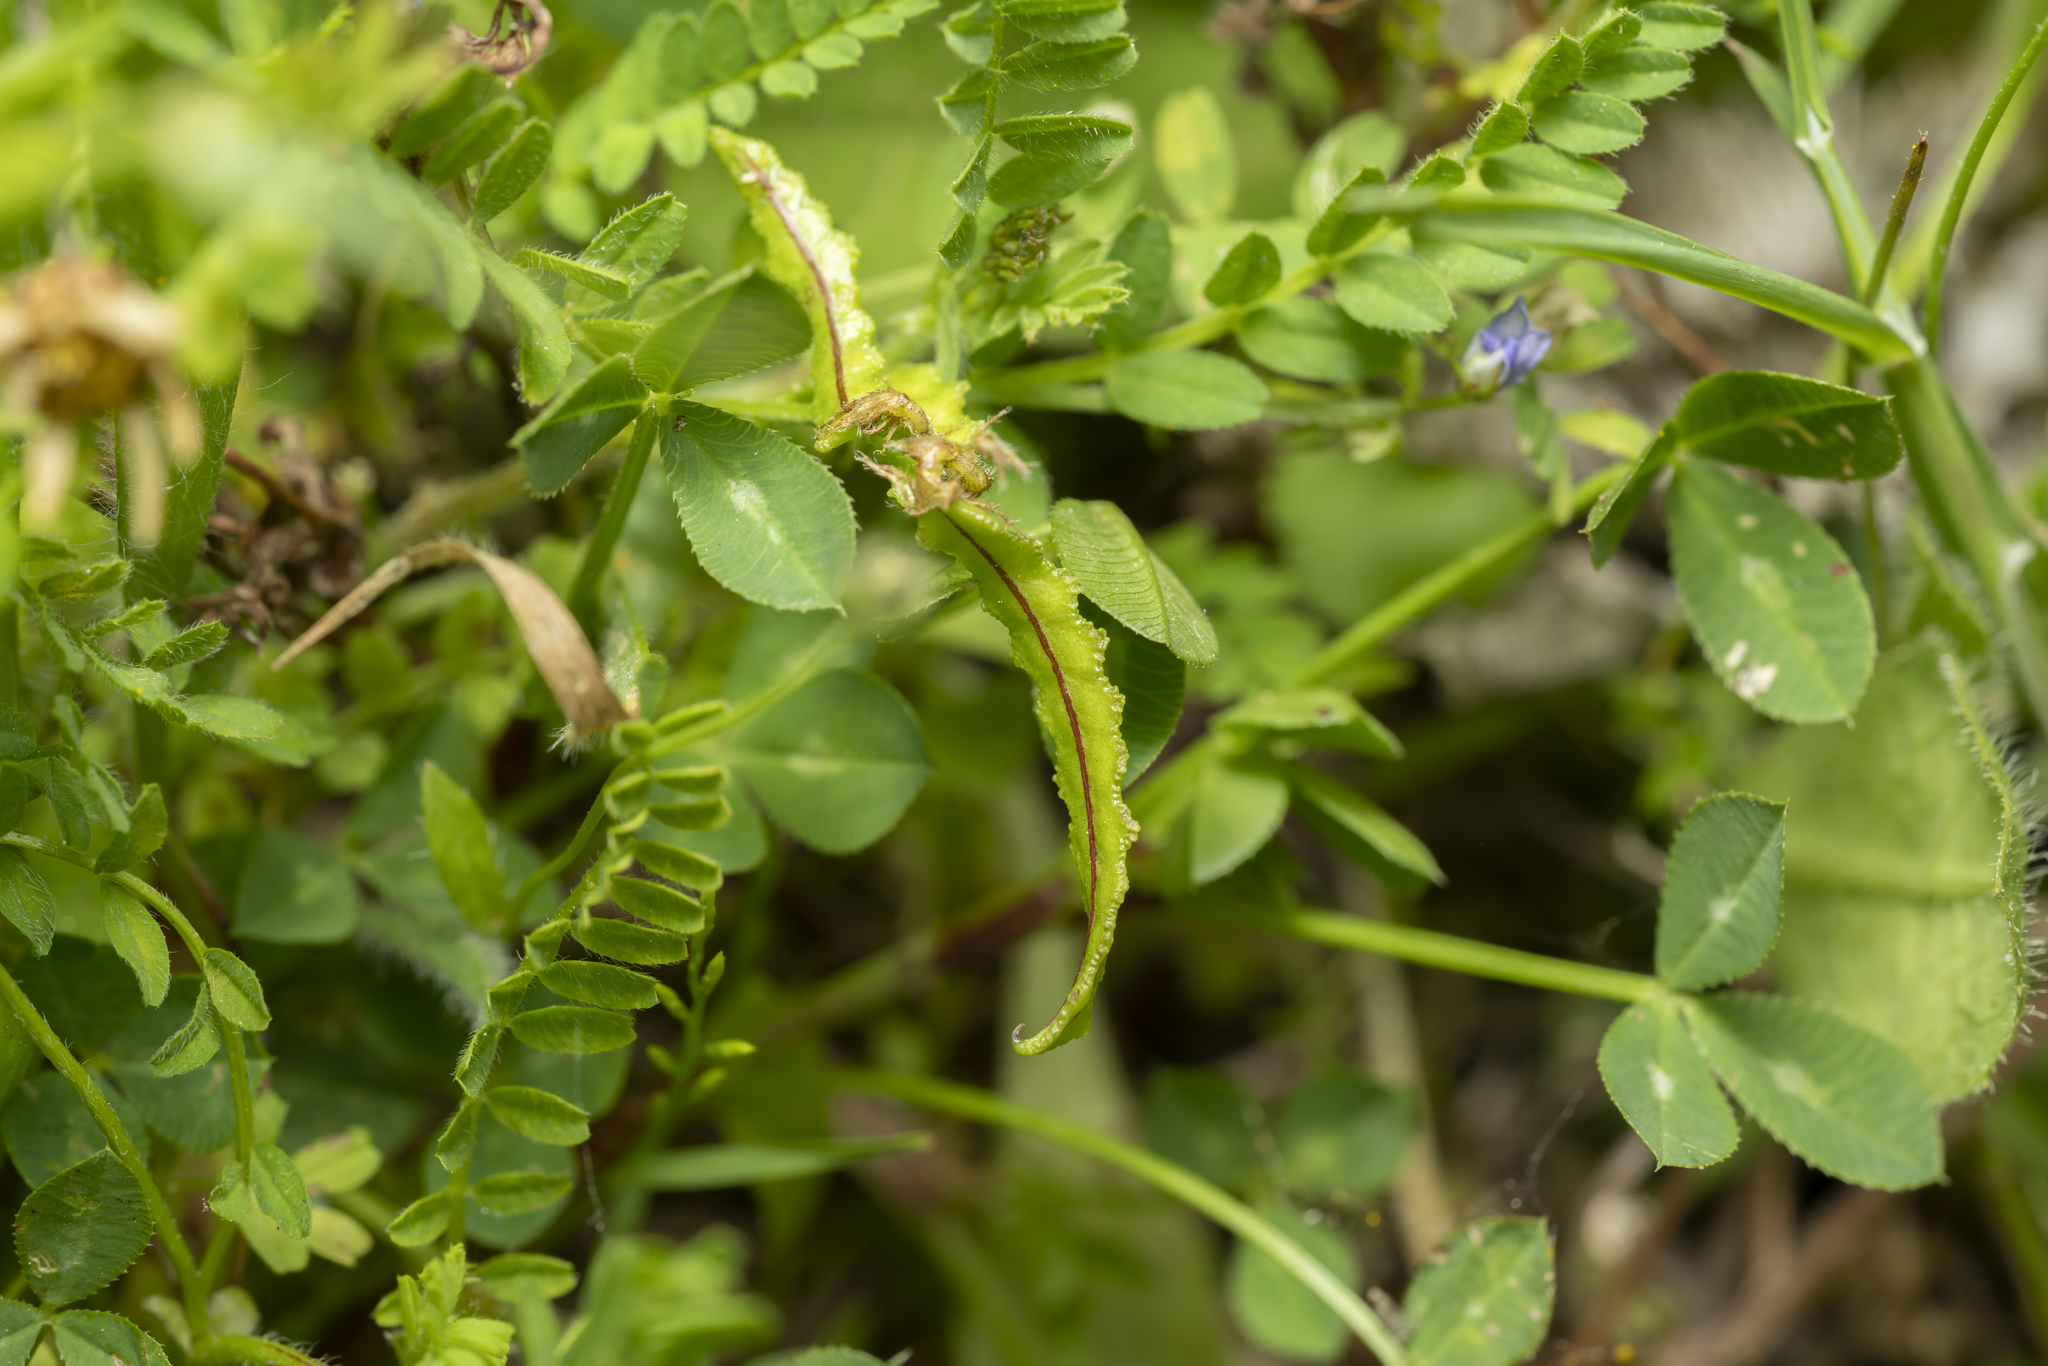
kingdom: Plantae
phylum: Tracheophyta
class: Magnoliopsida
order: Fabales
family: Fabaceae
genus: Biserrula
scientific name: Biserrula pelecinus
